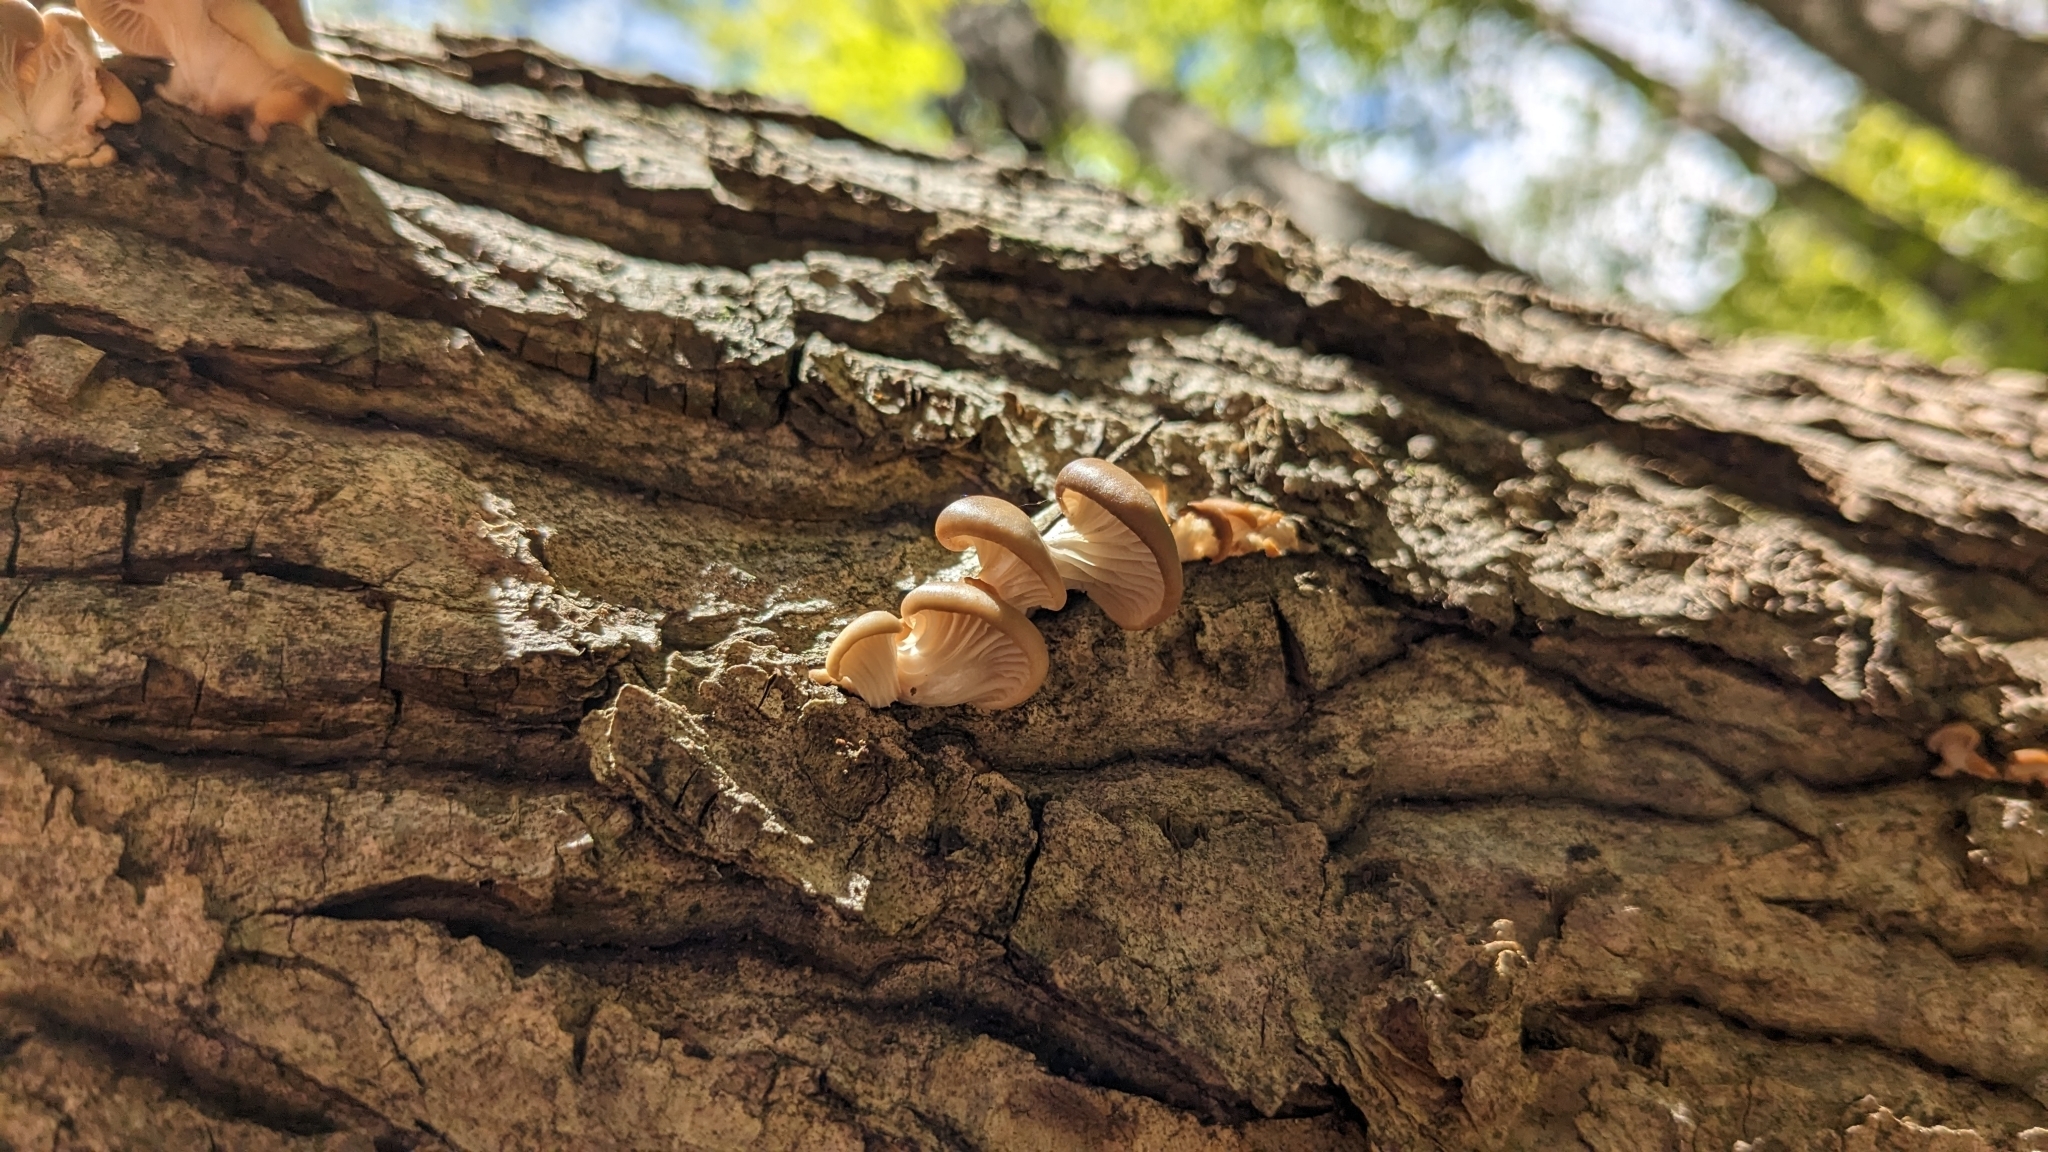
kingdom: Fungi
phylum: Basidiomycota
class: Agaricomycetes
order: Agaricales
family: Pleurotaceae
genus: Pleurotus
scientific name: Pleurotus ostreatus
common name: Oyster mushroom
